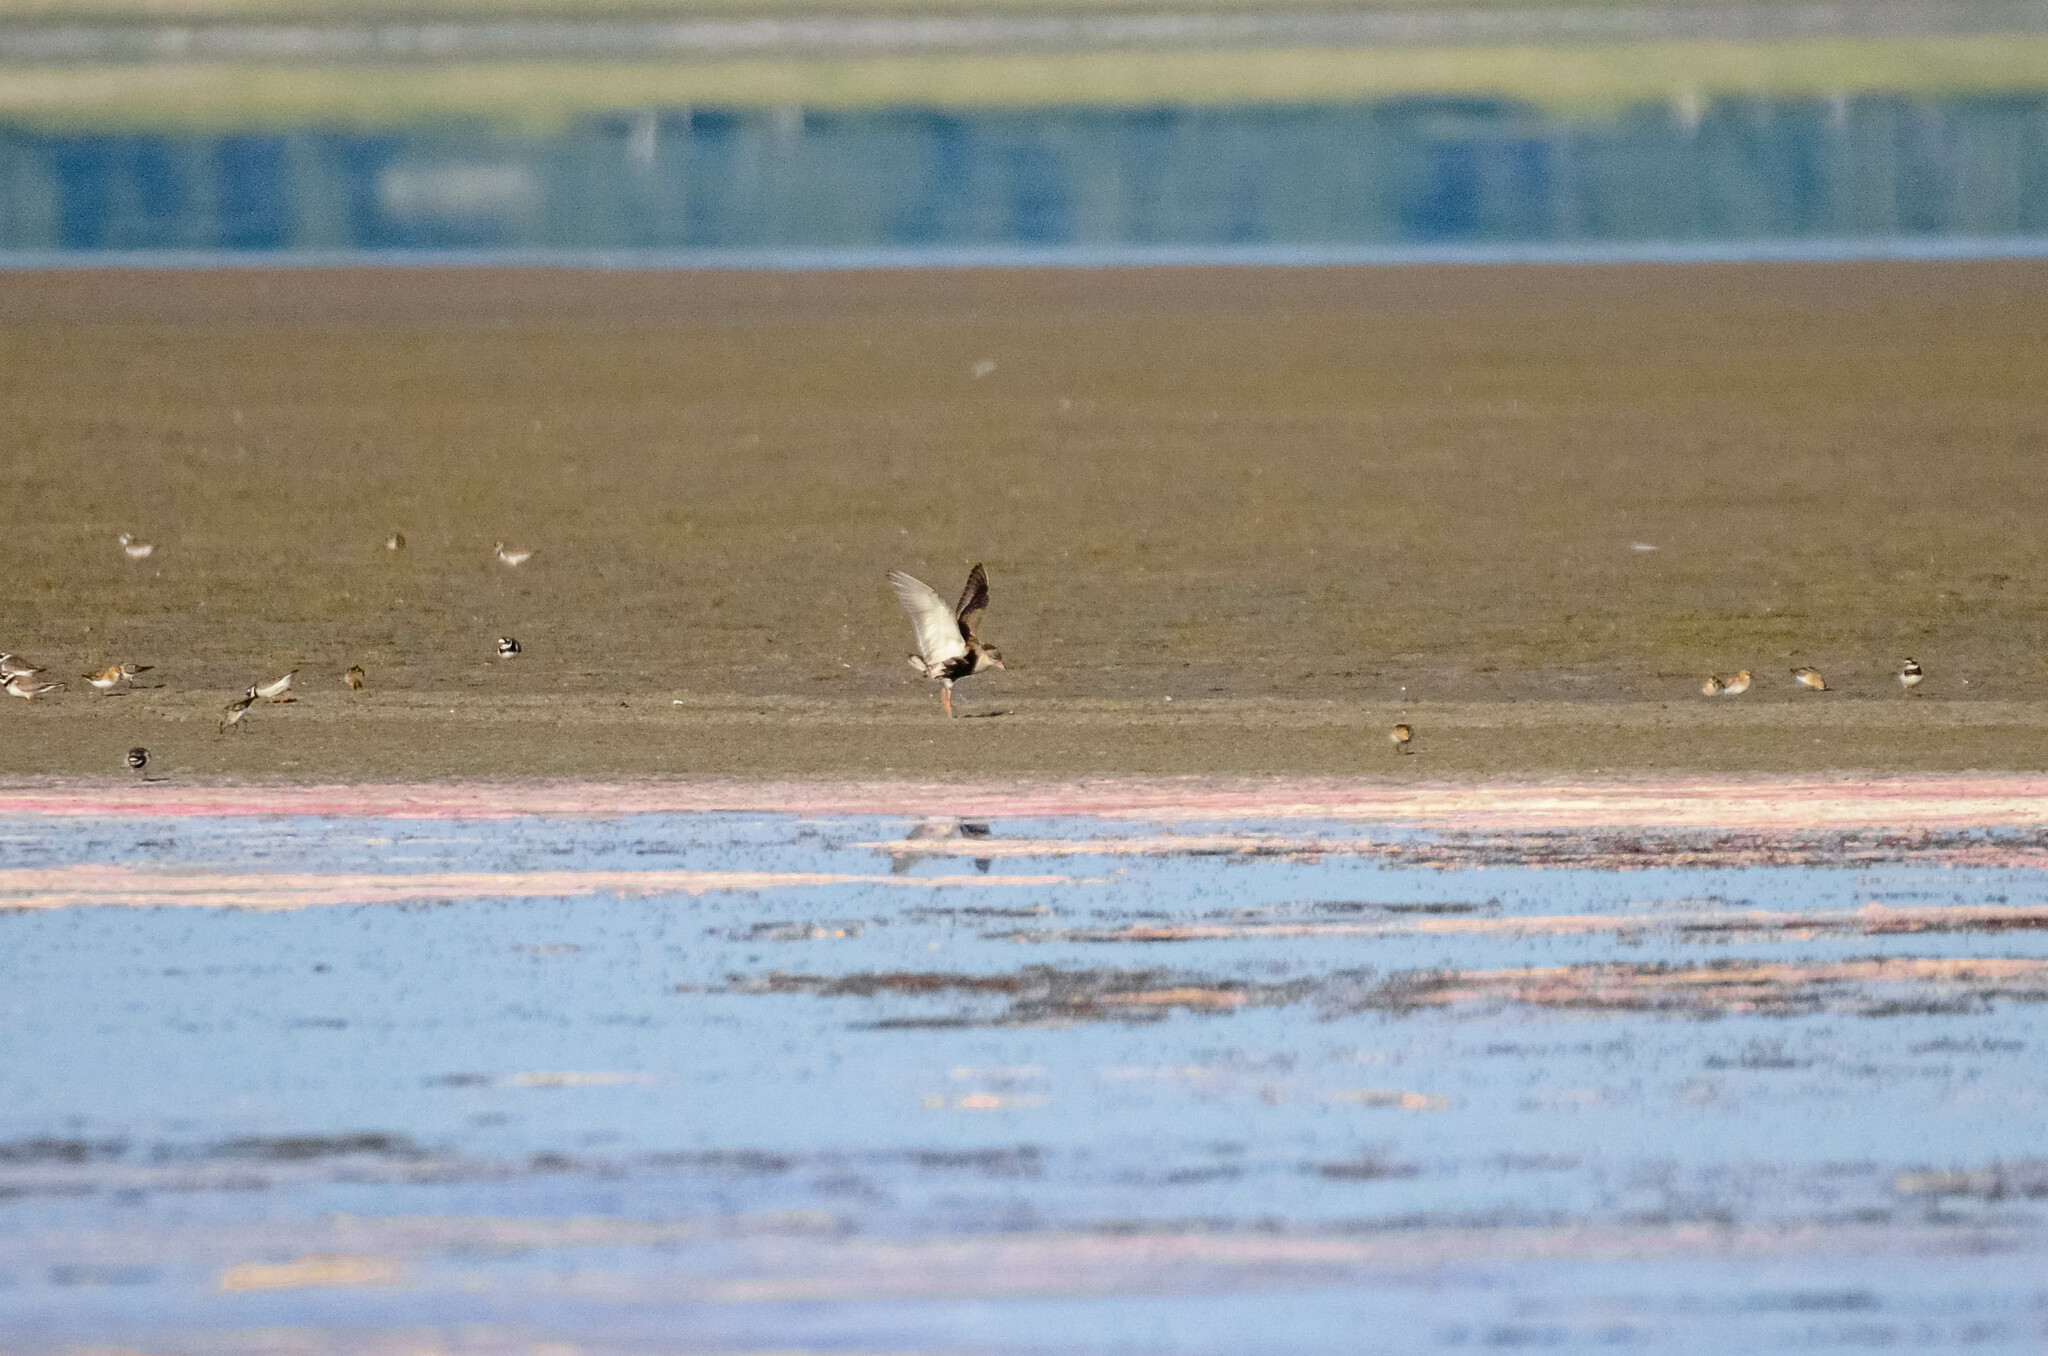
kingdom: Animalia
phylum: Chordata
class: Aves
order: Charadriiformes
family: Scolopacidae
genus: Calidris
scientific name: Calidris pugnax
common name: Ruff
